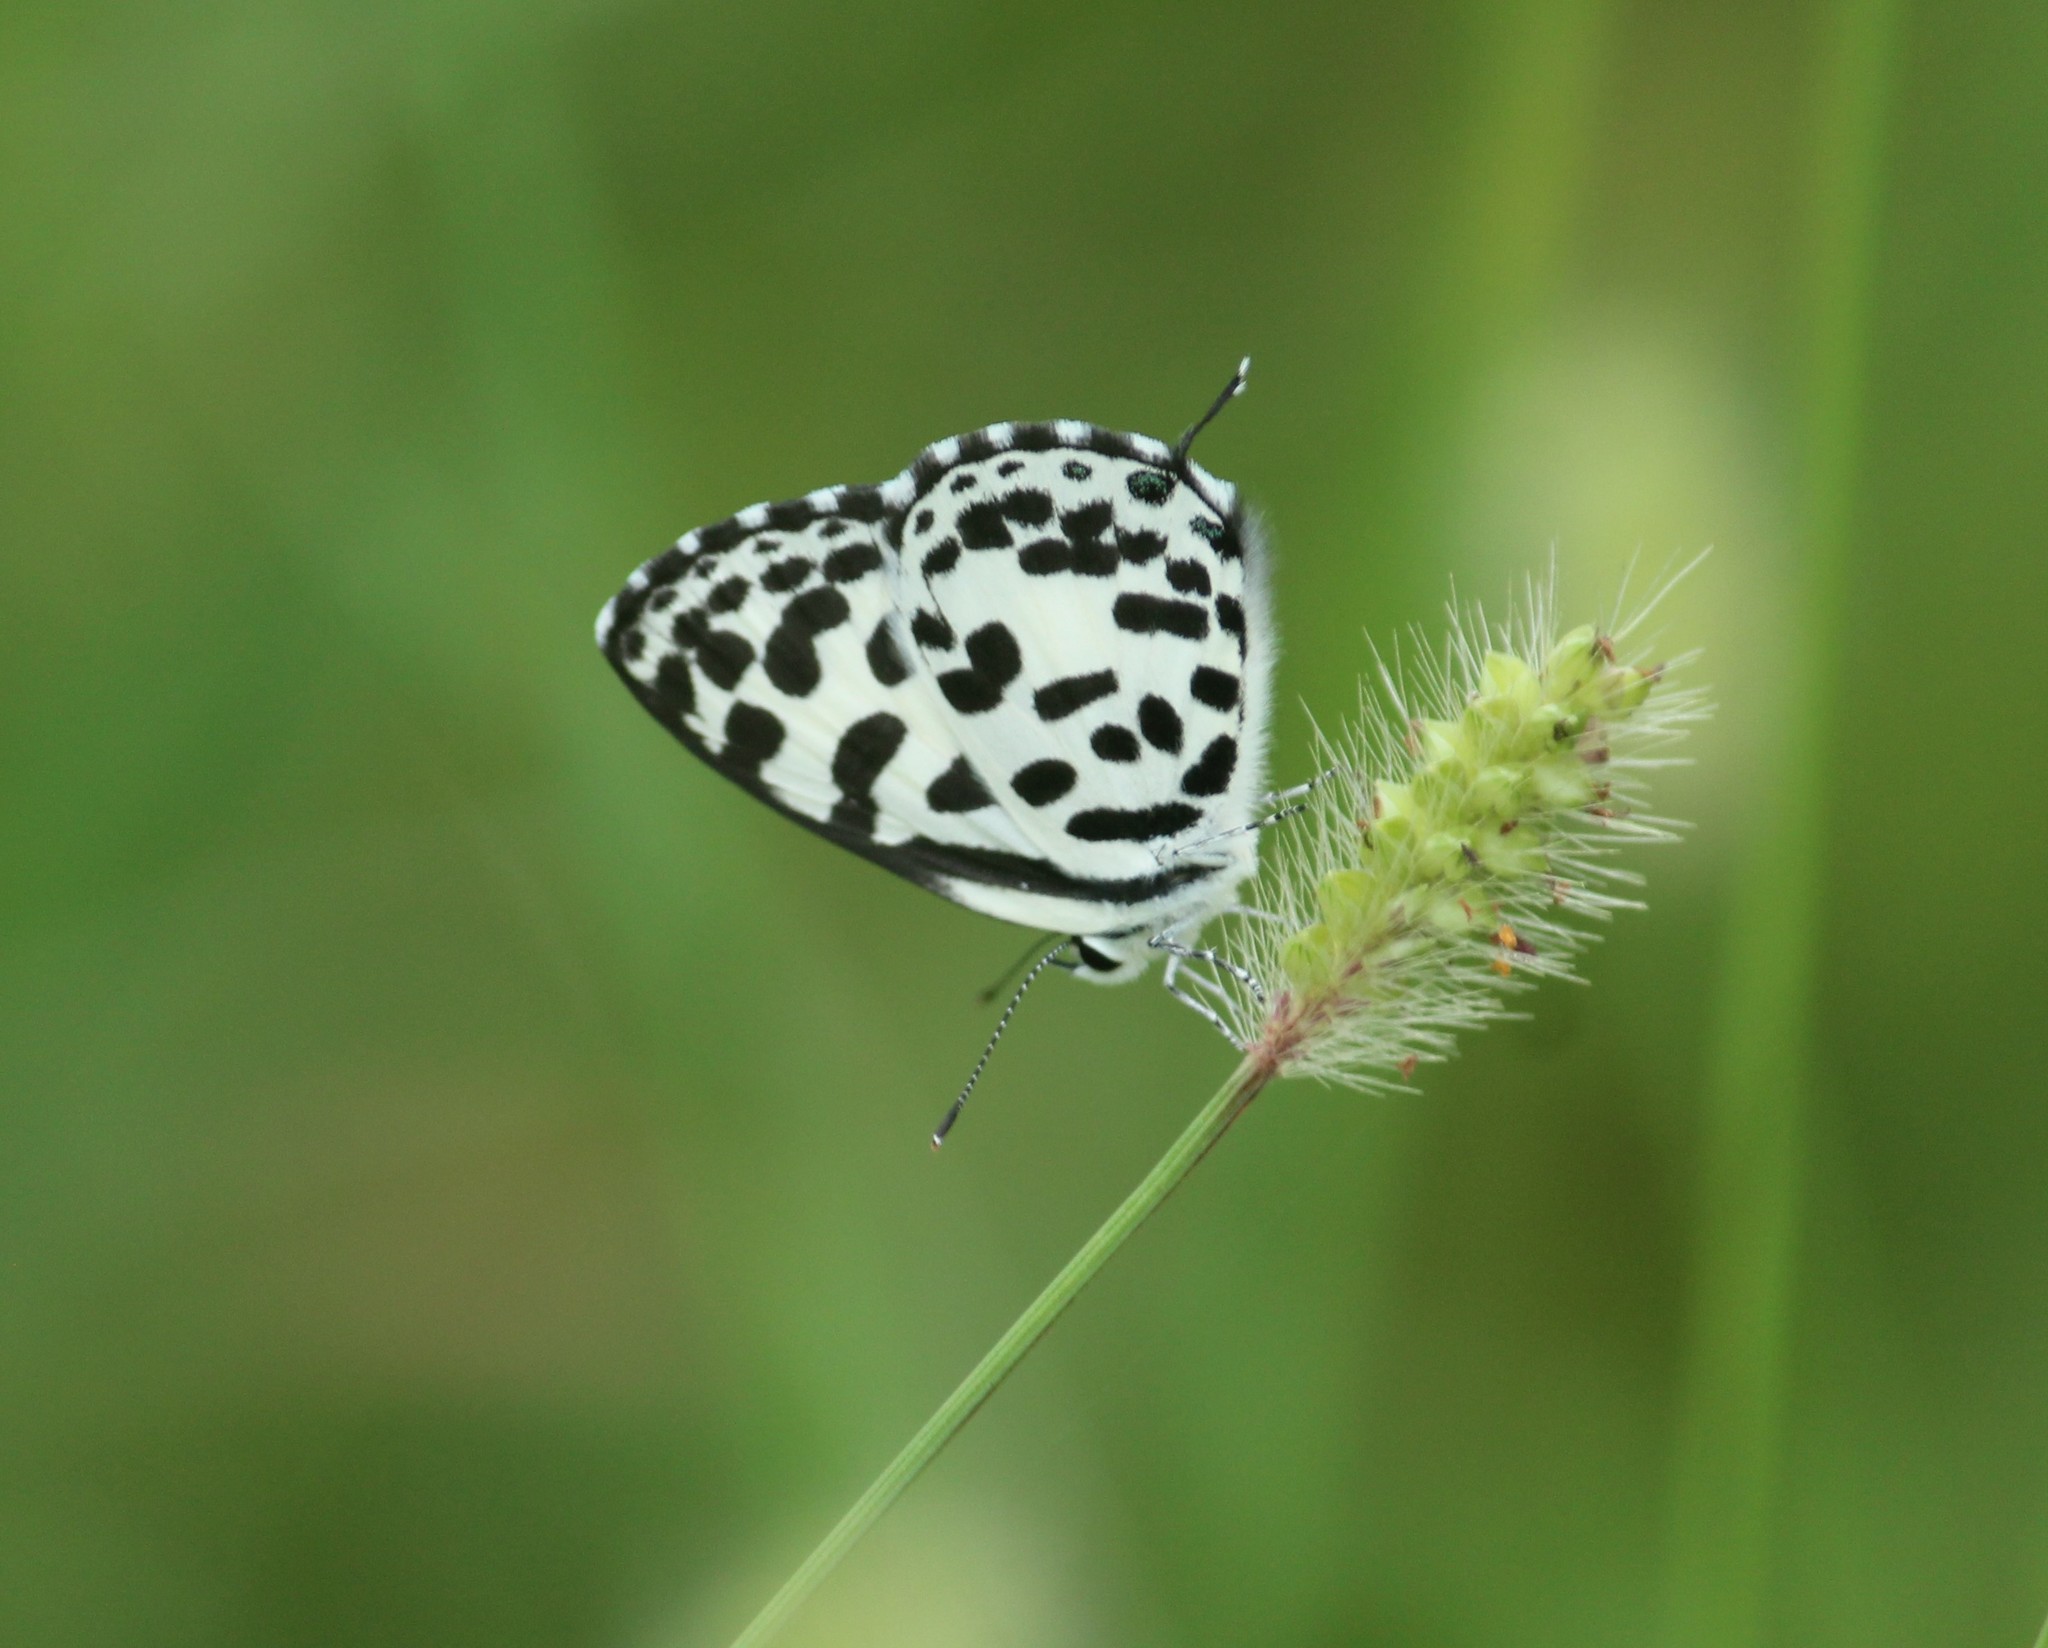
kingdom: Animalia
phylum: Arthropoda
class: Insecta
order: Lepidoptera
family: Lycaenidae
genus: Castalius
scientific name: Castalius rosimon
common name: Common pierrot
